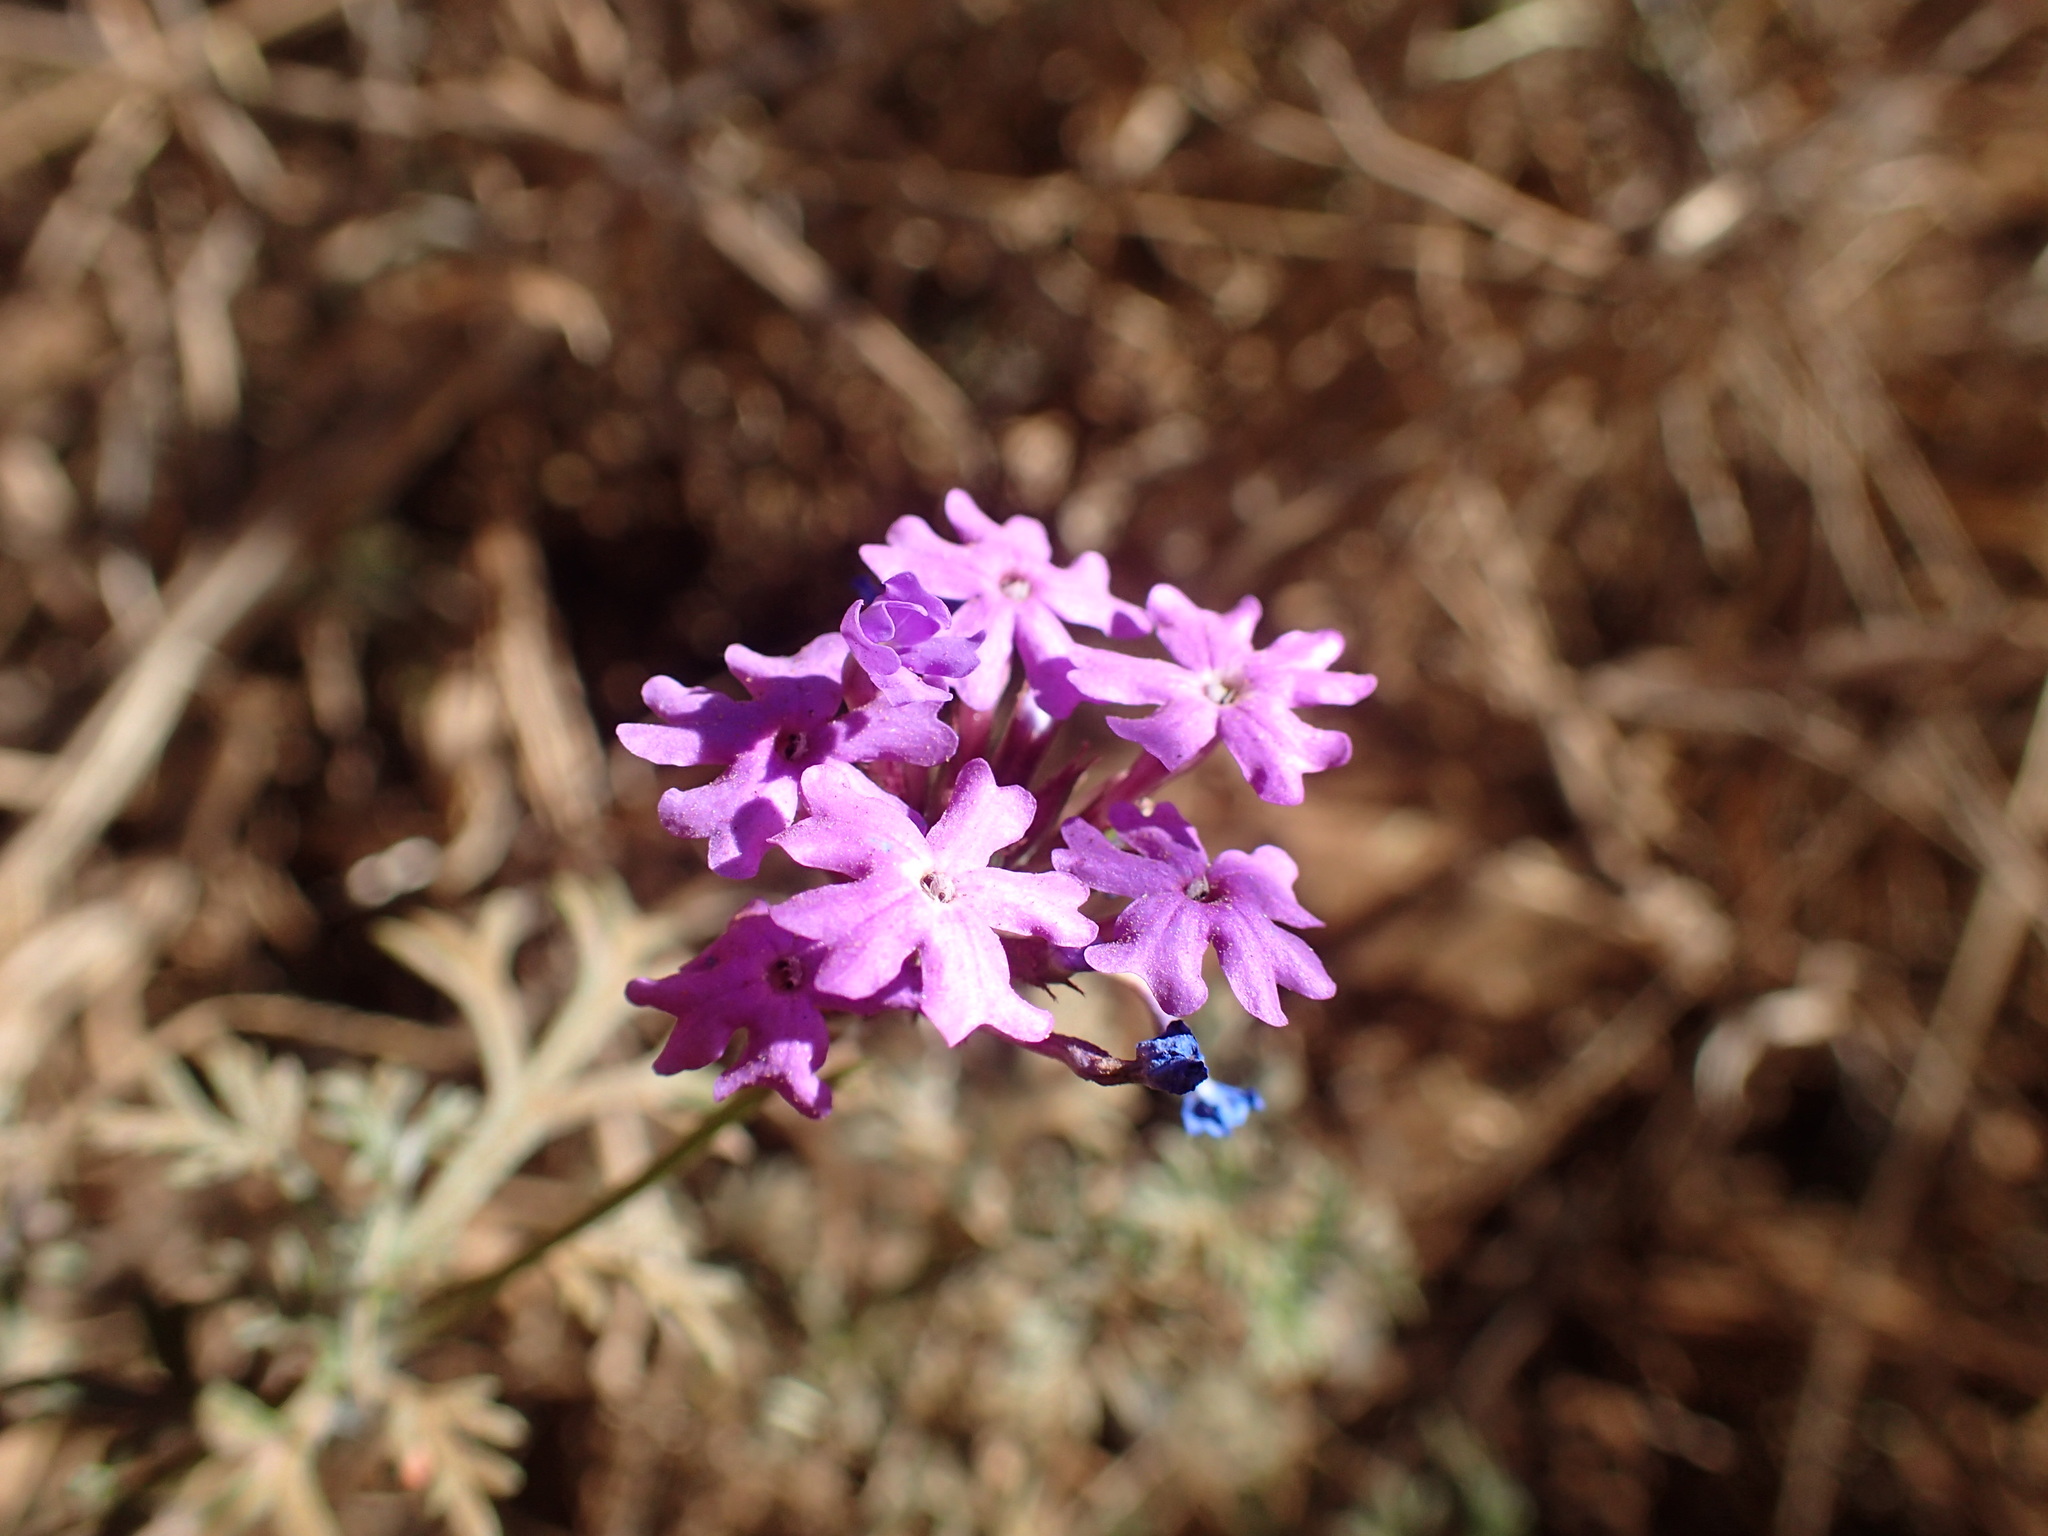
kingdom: Plantae
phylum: Tracheophyta
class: Magnoliopsida
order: Lamiales
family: Verbenaceae
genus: Verbena
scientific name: Verbena aristigera
